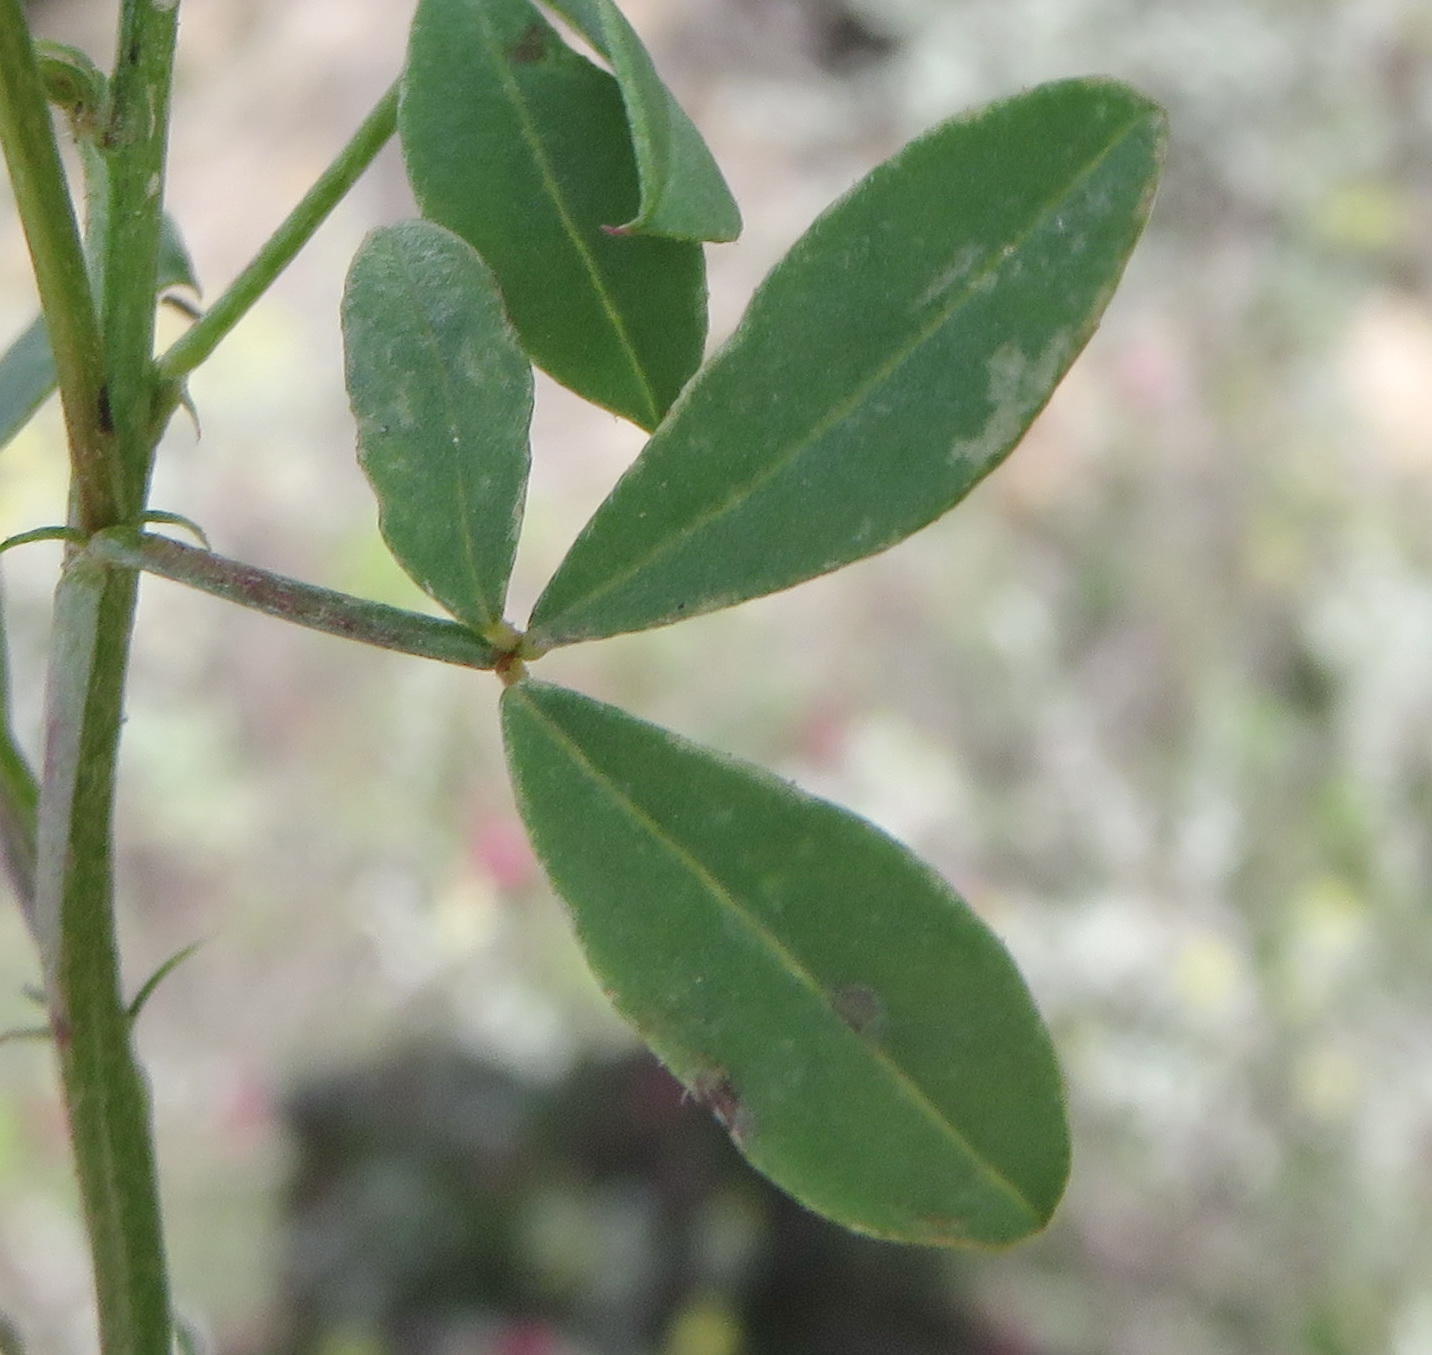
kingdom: Plantae
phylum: Tracheophyta
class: Magnoliopsida
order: Fabales
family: Fabaceae
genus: Indigofera
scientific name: Indigofera heterophylla
